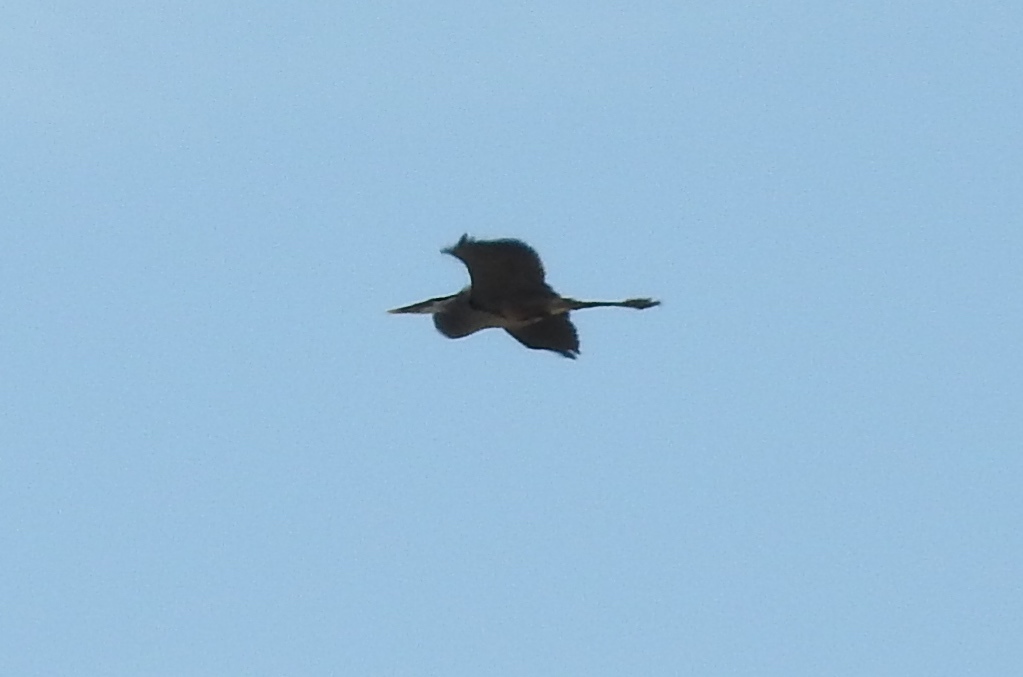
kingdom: Animalia
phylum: Chordata
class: Aves
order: Pelecaniformes
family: Ardeidae
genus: Ardea
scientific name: Ardea herodias
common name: Great blue heron
